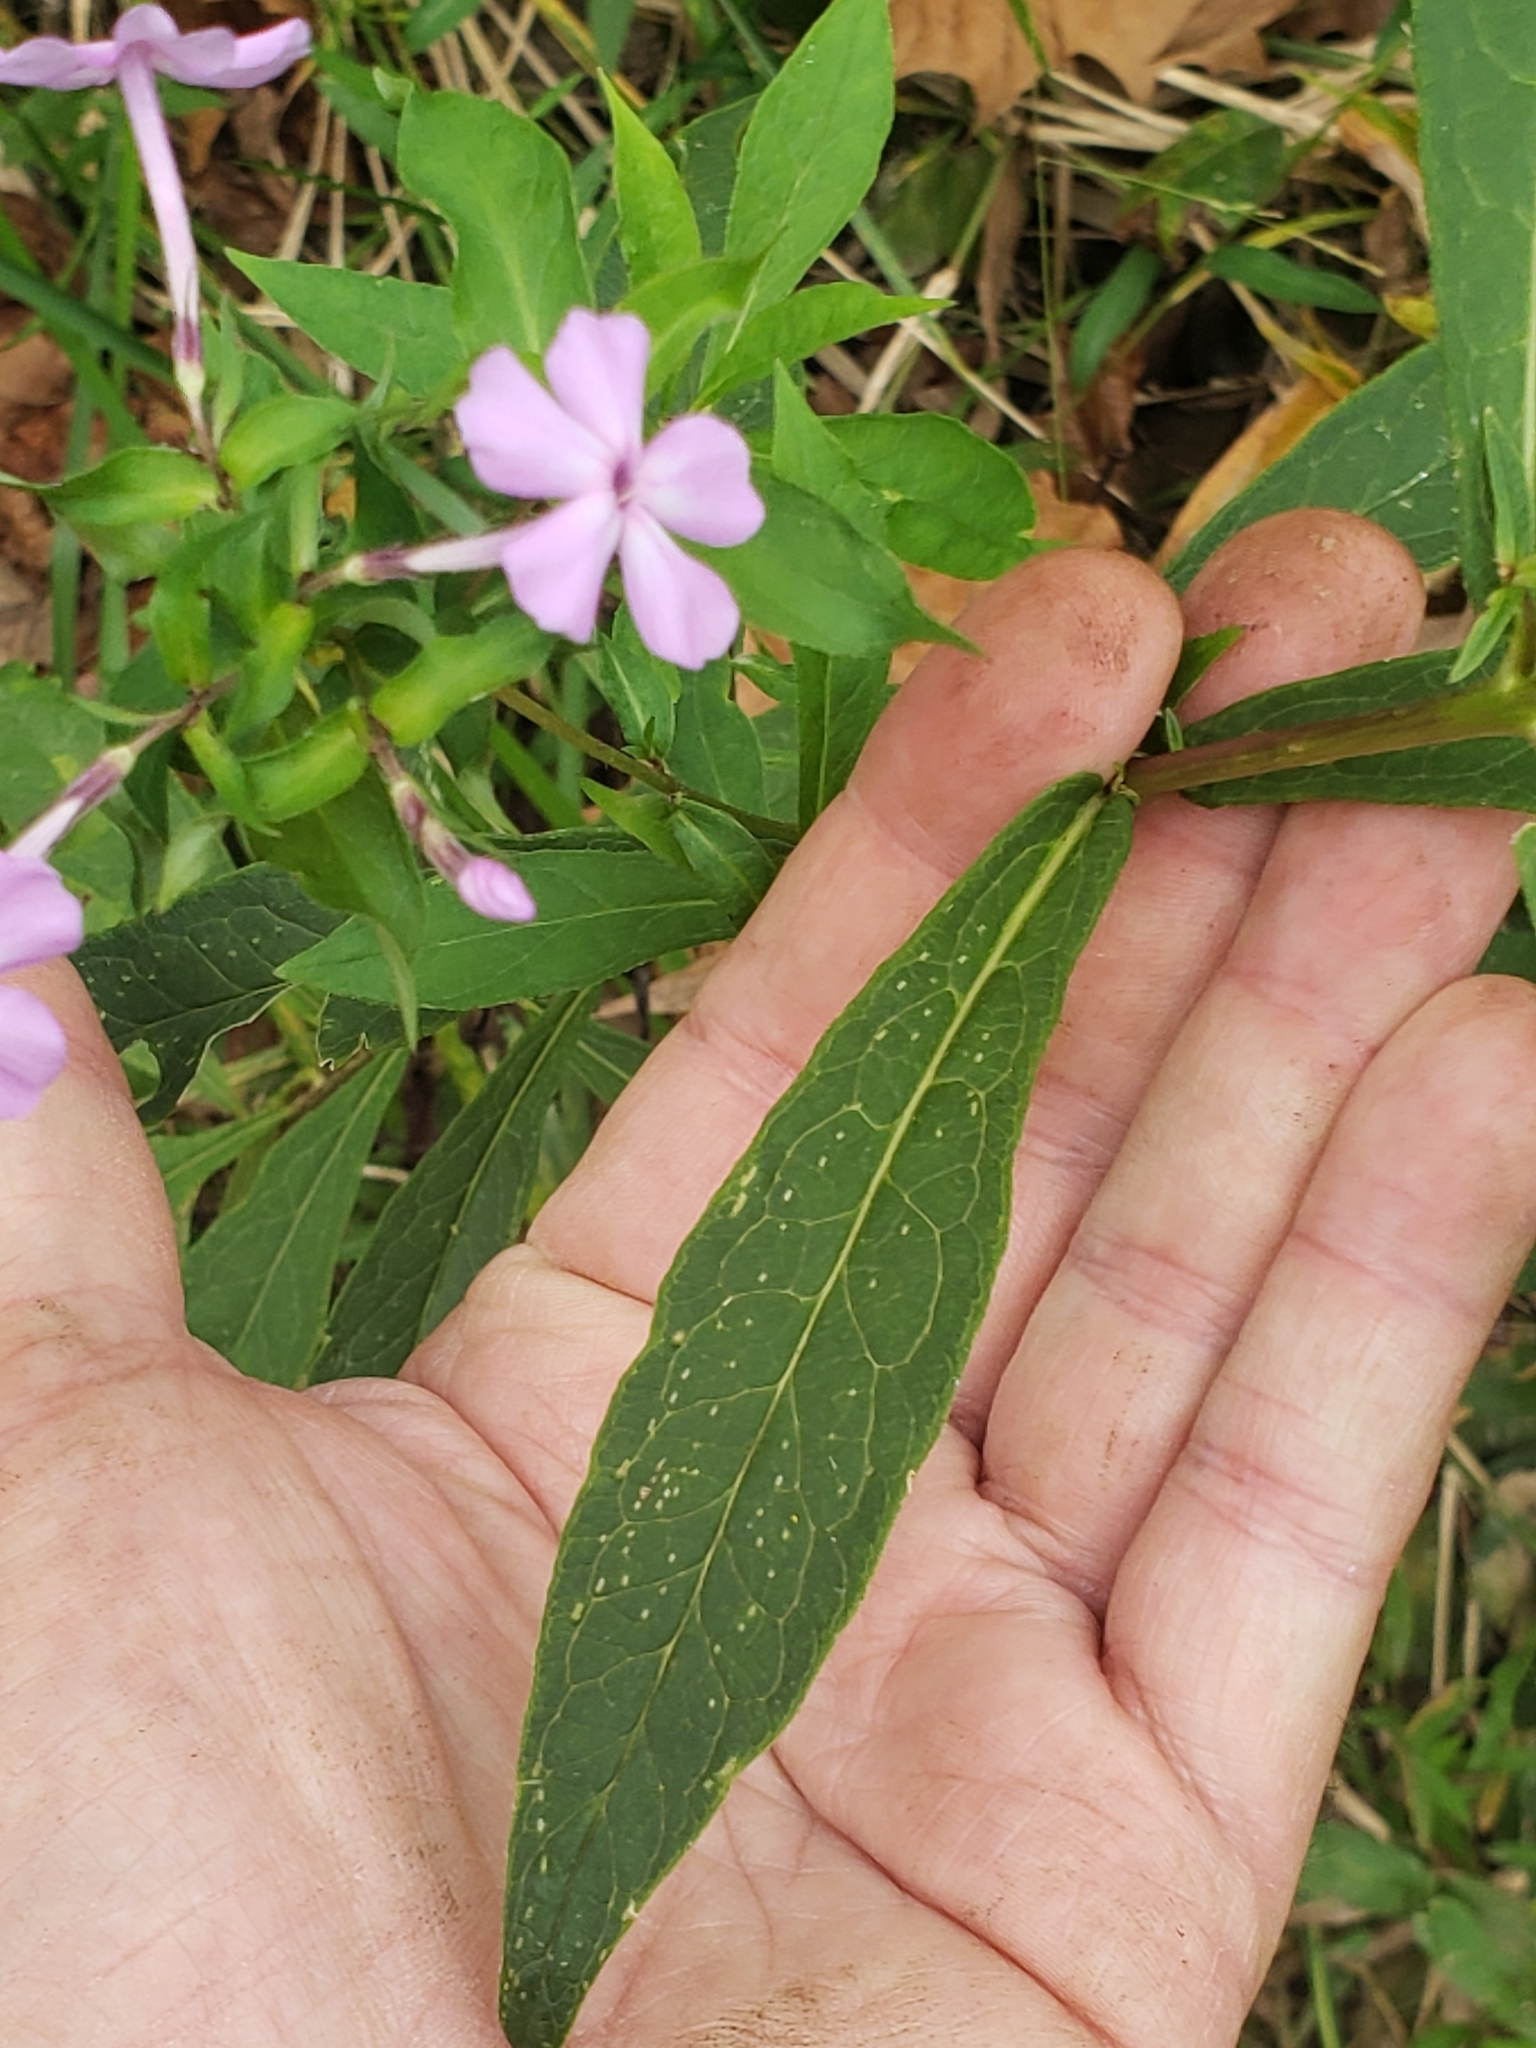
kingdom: Plantae
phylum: Tracheophyta
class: Magnoliopsida
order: Ericales
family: Polemoniaceae
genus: Phlox
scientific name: Phlox paniculata
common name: Fall phlox
